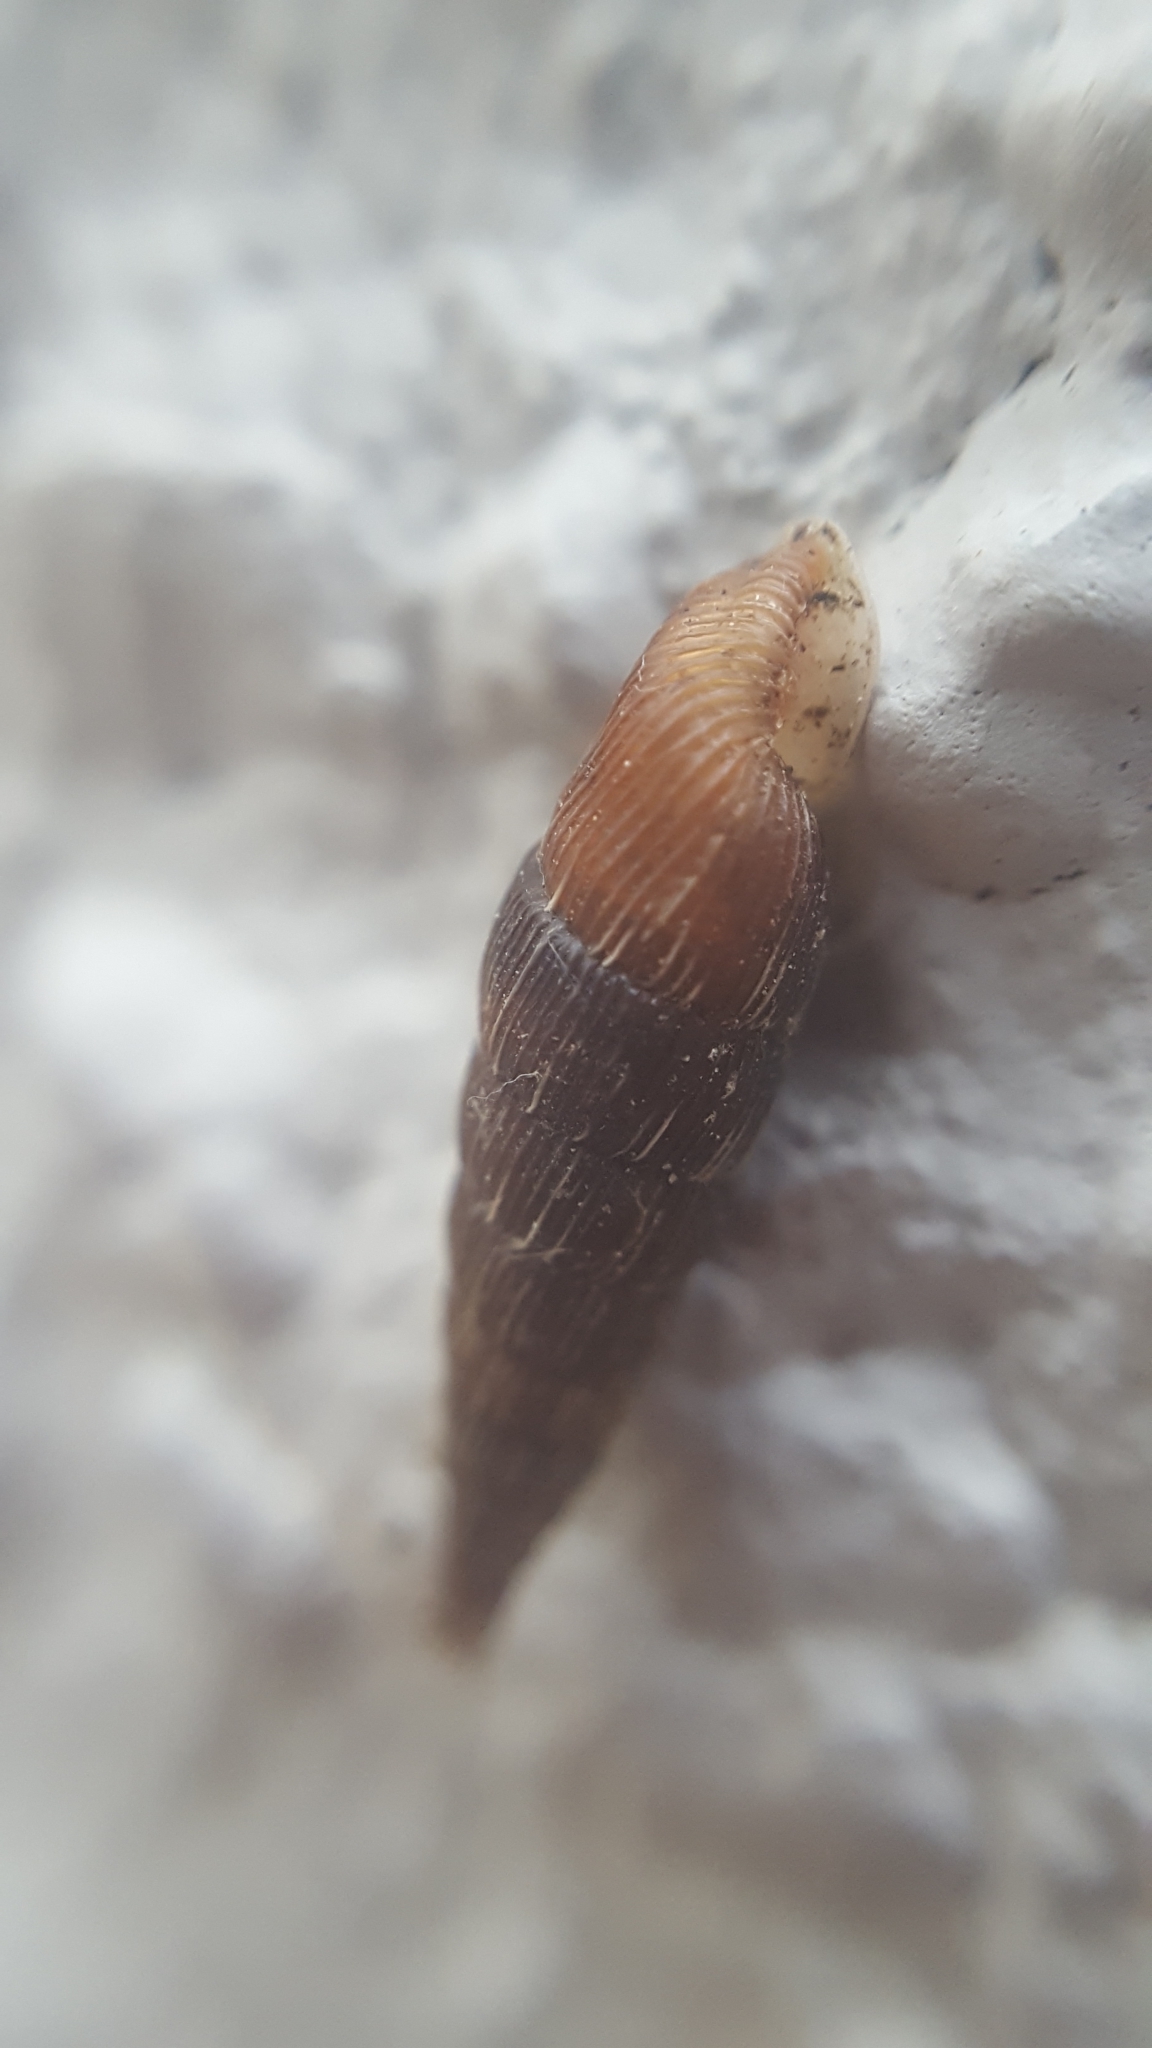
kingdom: Animalia
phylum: Mollusca
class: Gastropoda
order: Stylommatophora
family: Clausiliidae
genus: Alinda
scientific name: Alinda biplicata
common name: Thames door snail
